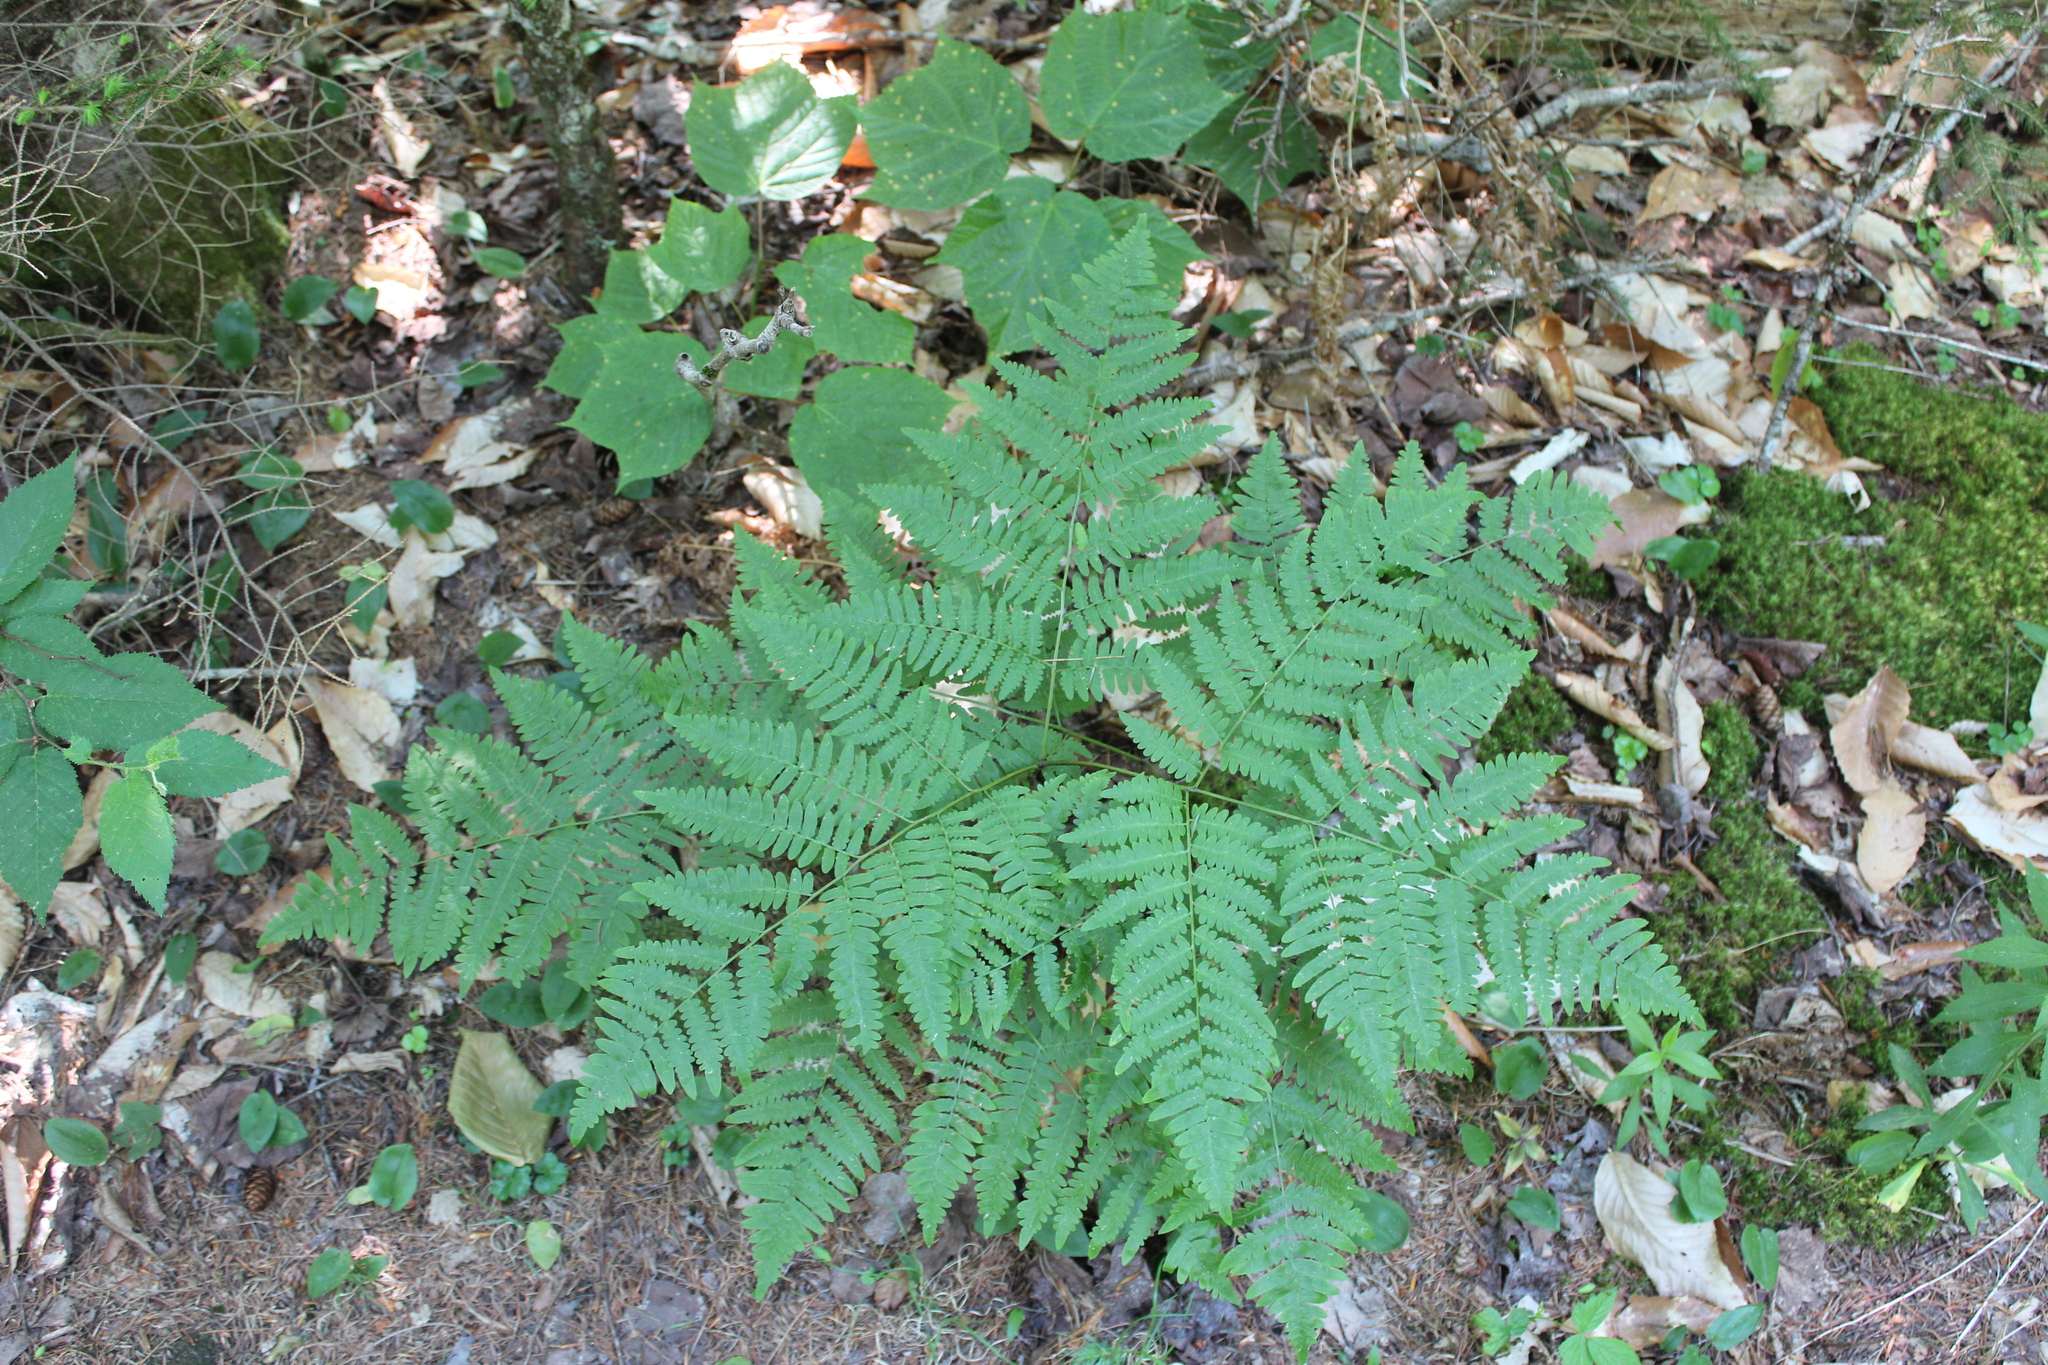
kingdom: Plantae
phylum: Tracheophyta
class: Polypodiopsida
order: Polypodiales
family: Dennstaedtiaceae
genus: Pteridium
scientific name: Pteridium aquilinum
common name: Bracken
